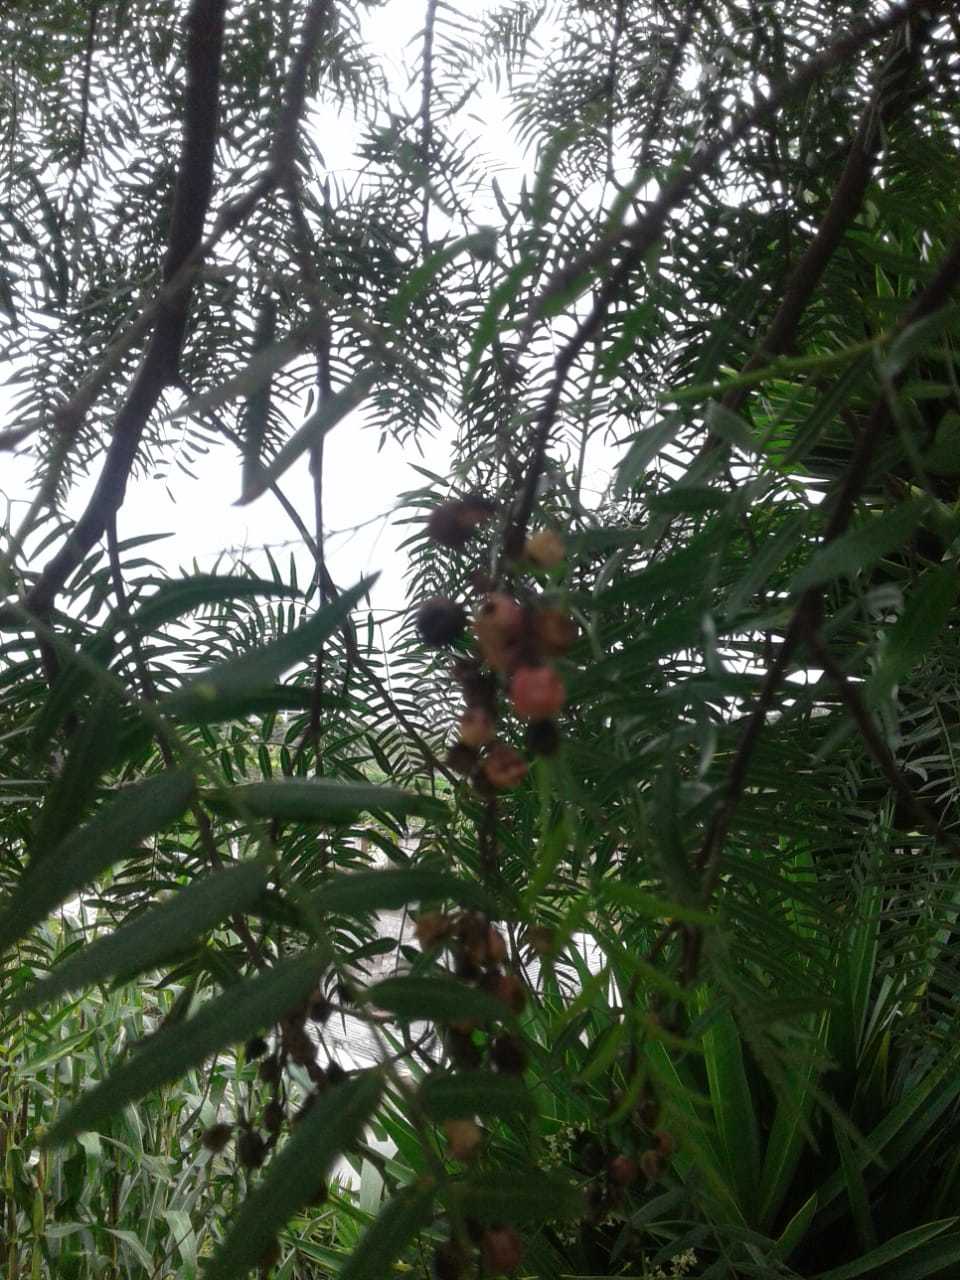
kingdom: Plantae
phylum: Tracheophyta
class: Magnoliopsida
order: Sapindales
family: Anacardiaceae
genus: Schinus
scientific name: Schinus molle
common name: Peruvian peppertree
